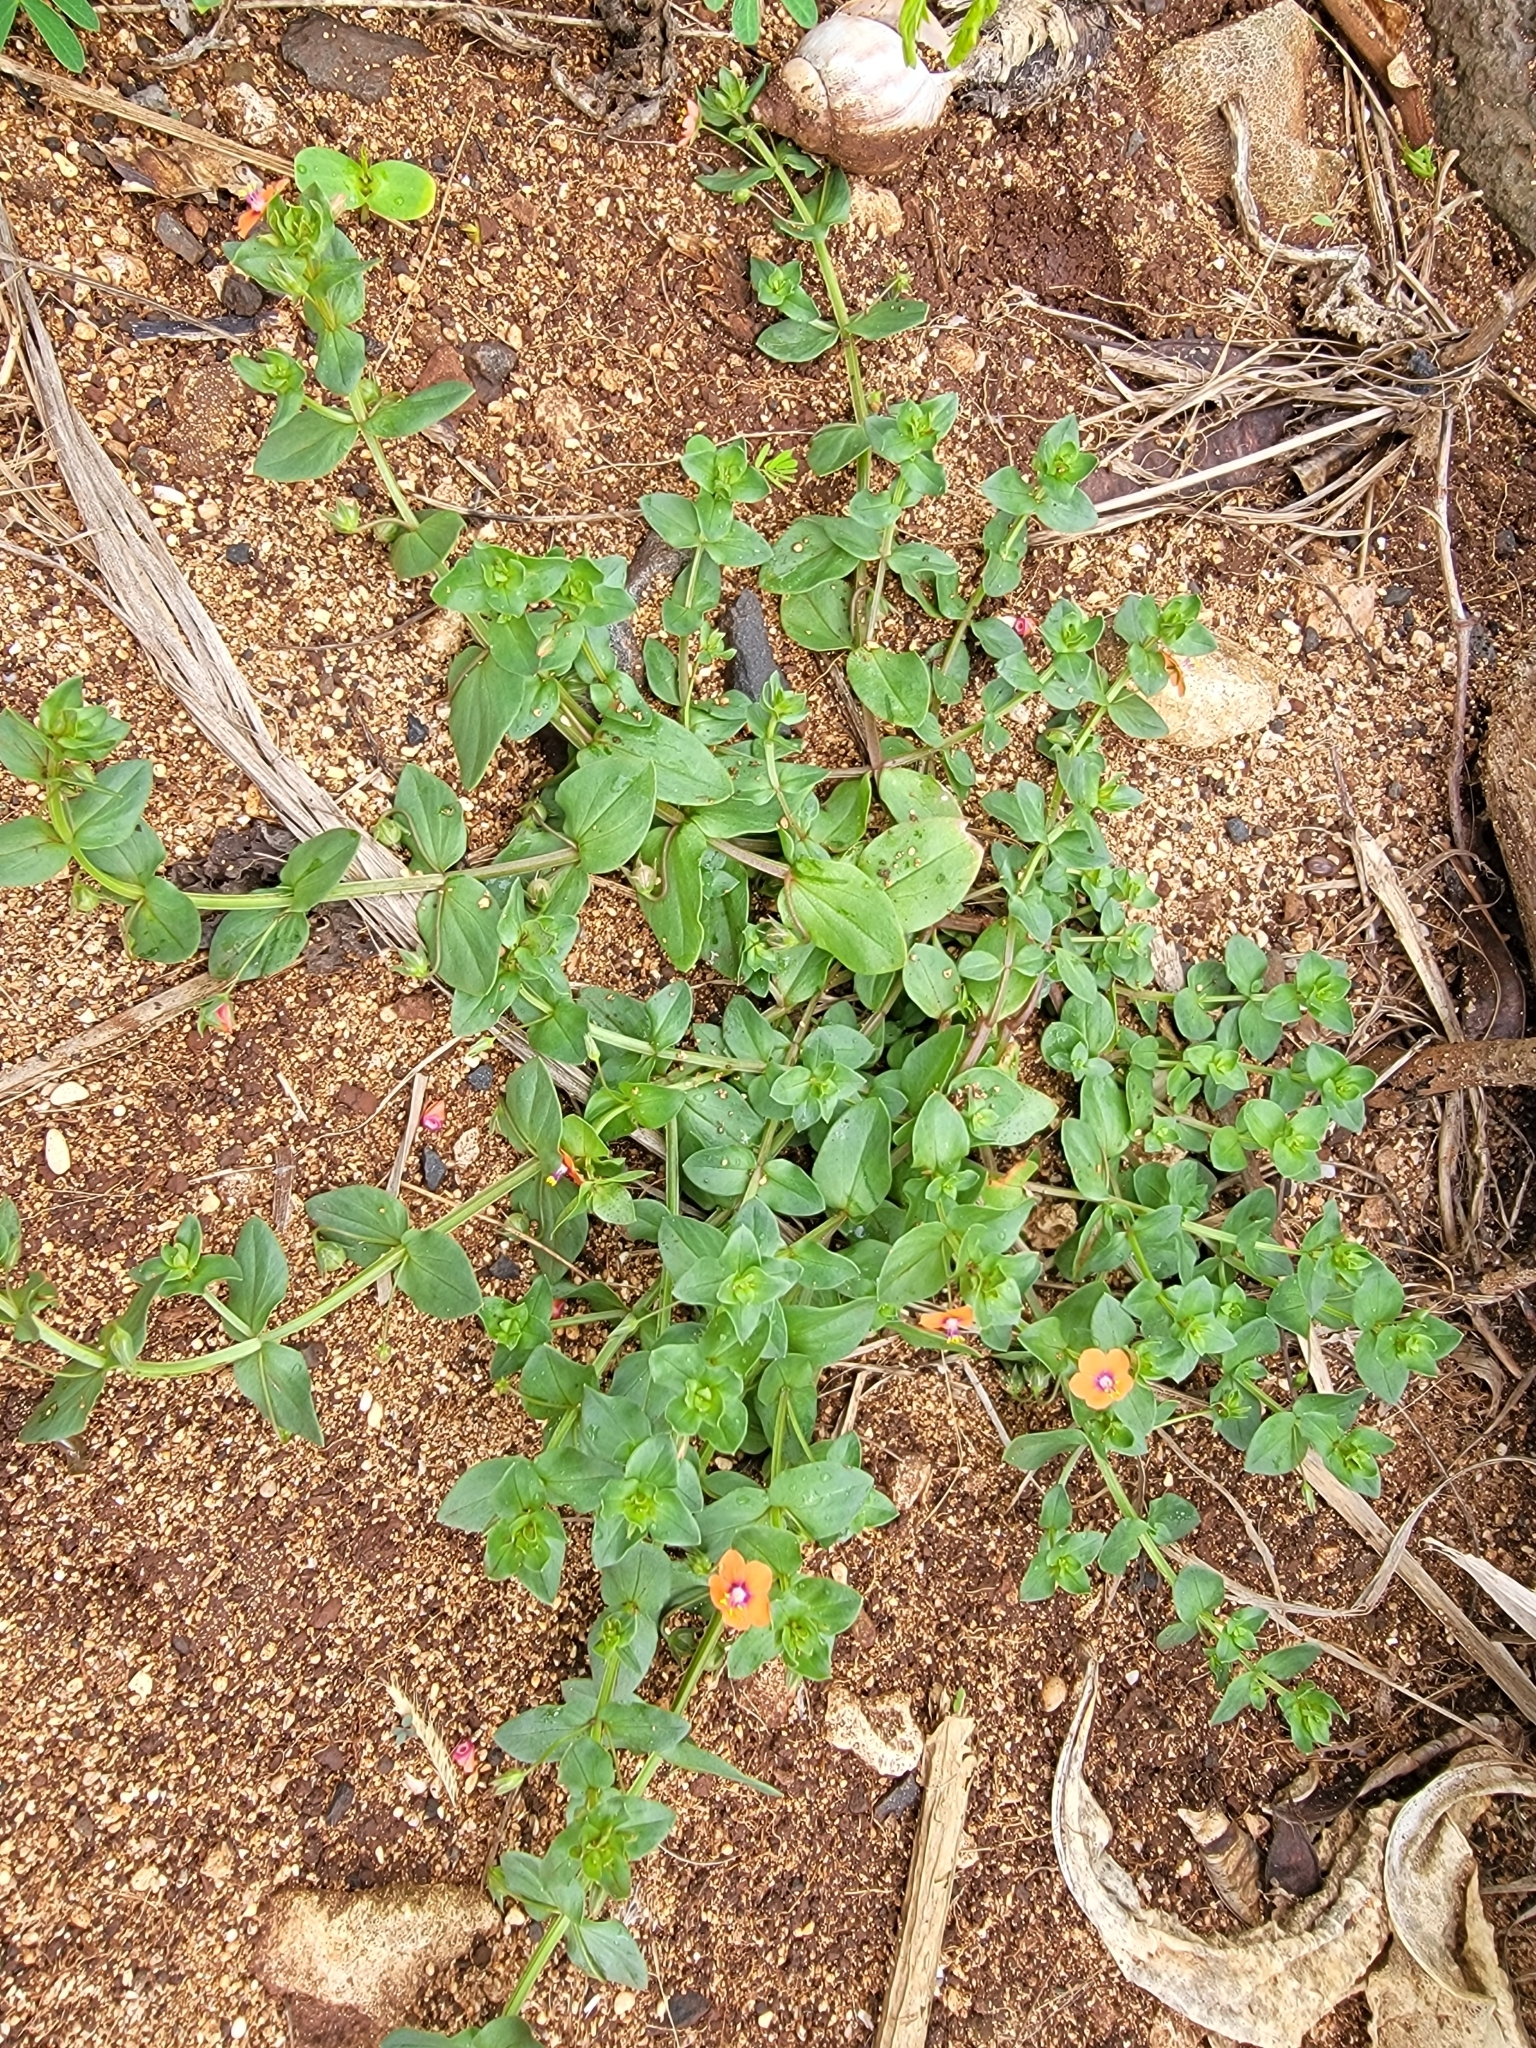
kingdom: Plantae
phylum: Tracheophyta
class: Magnoliopsida
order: Ericales
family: Primulaceae
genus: Lysimachia
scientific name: Lysimachia arvensis
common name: Scarlet pimpernel
